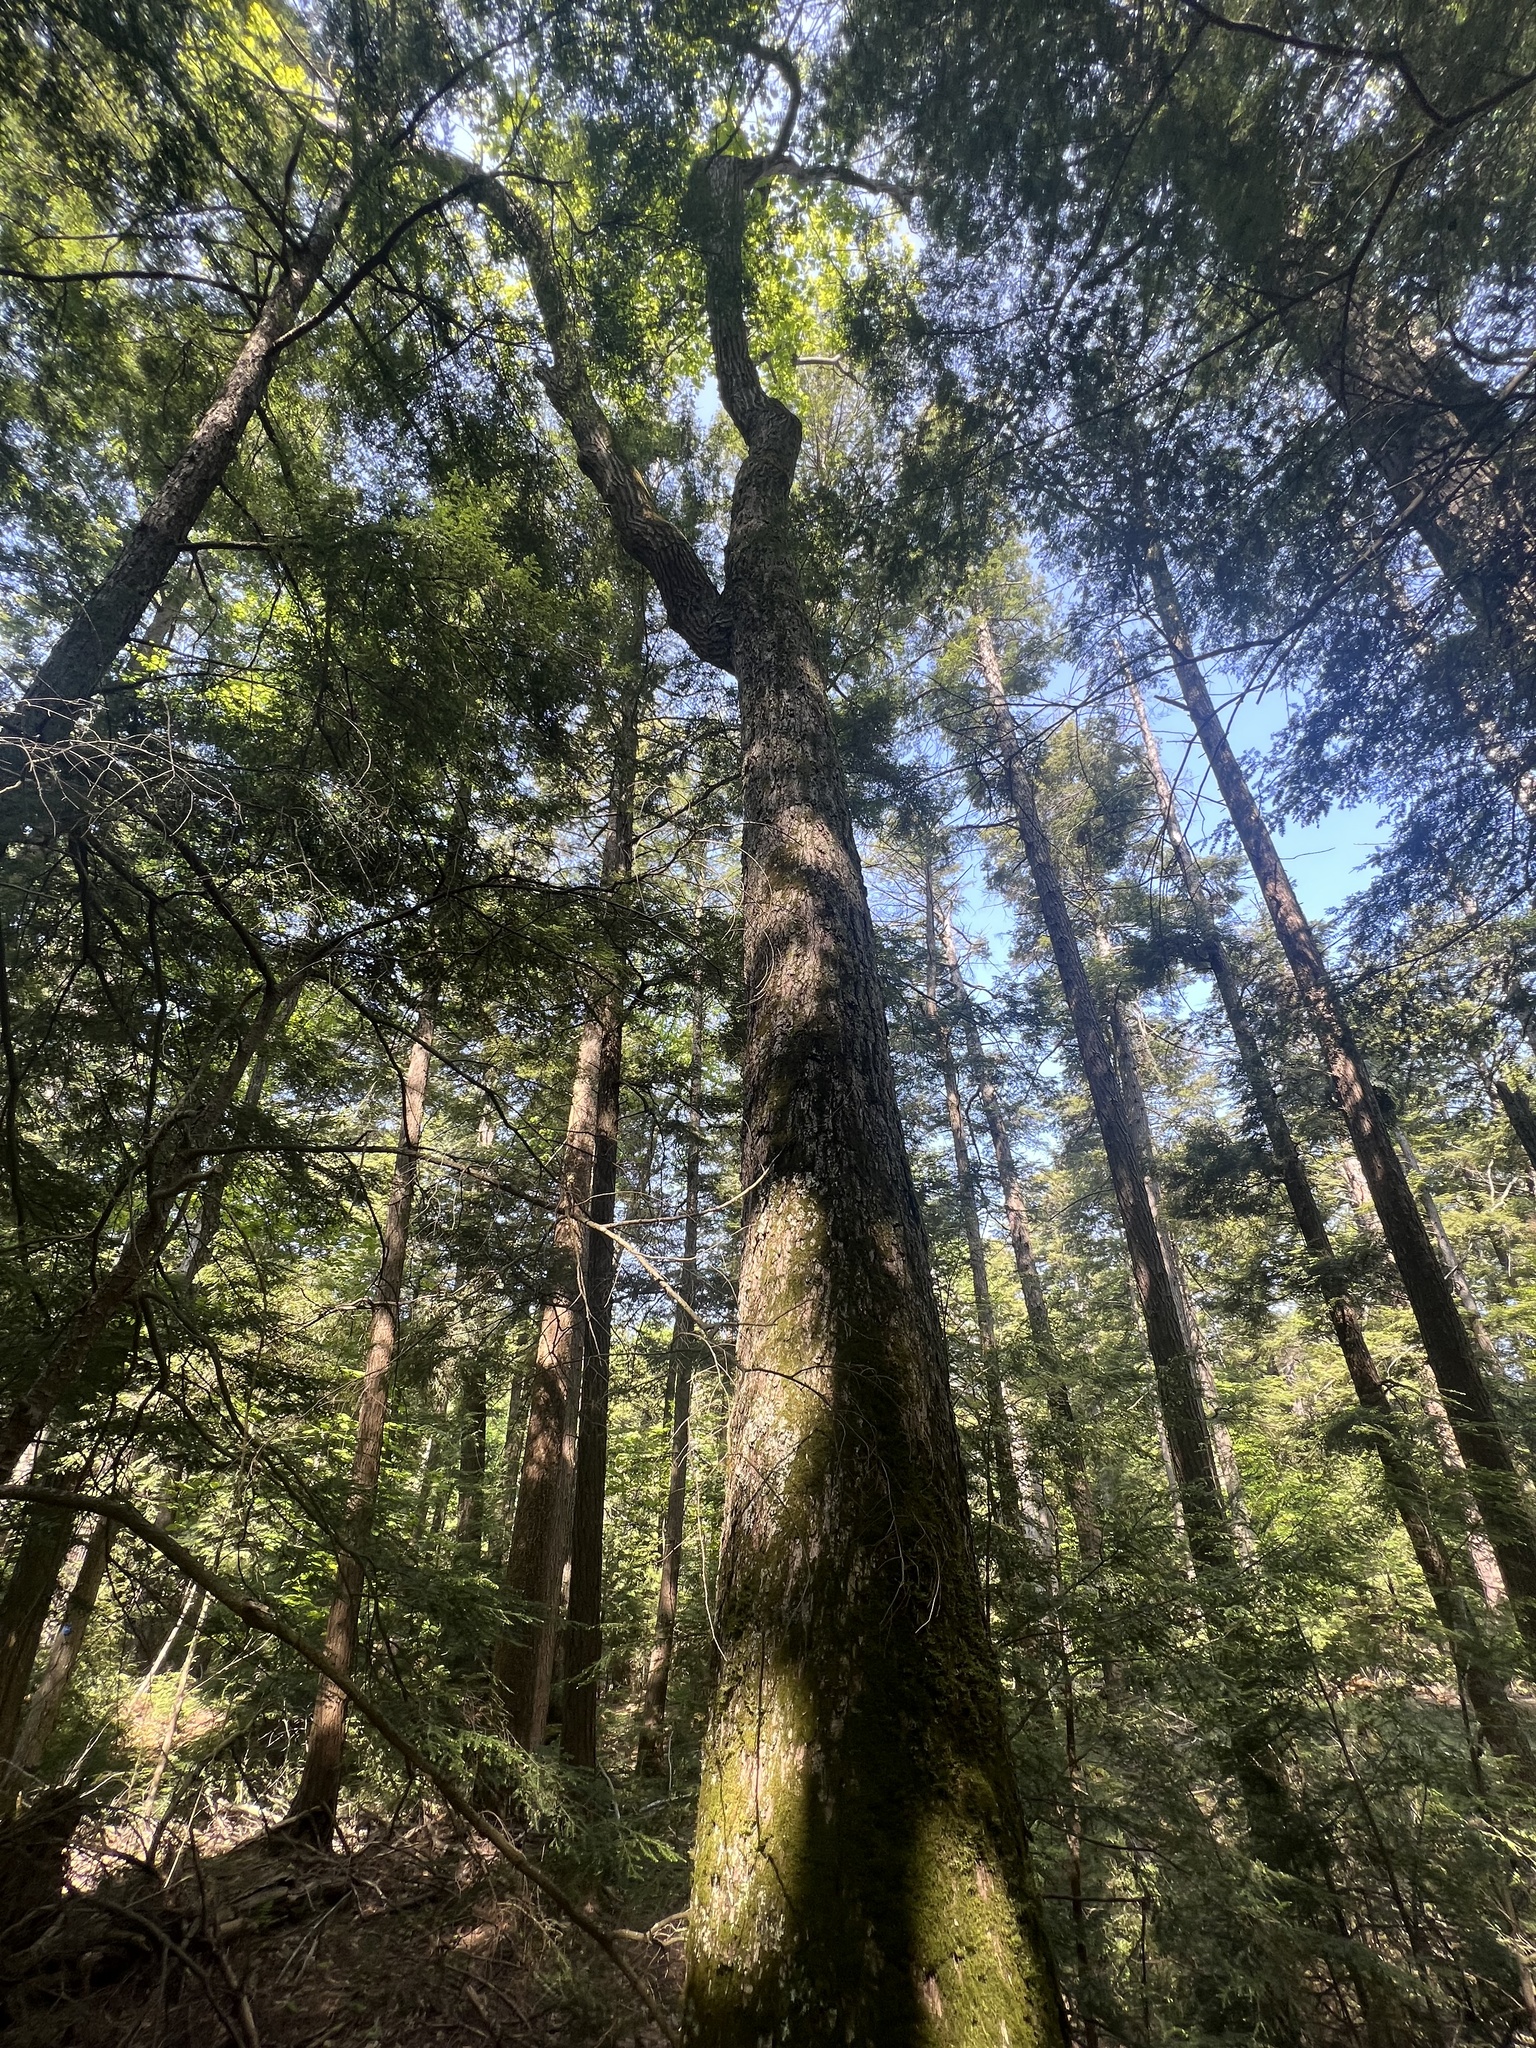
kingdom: Plantae
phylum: Tracheophyta
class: Magnoliopsida
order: Fagales
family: Fagaceae
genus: Quercus
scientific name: Quercus rubra
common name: Red oak
